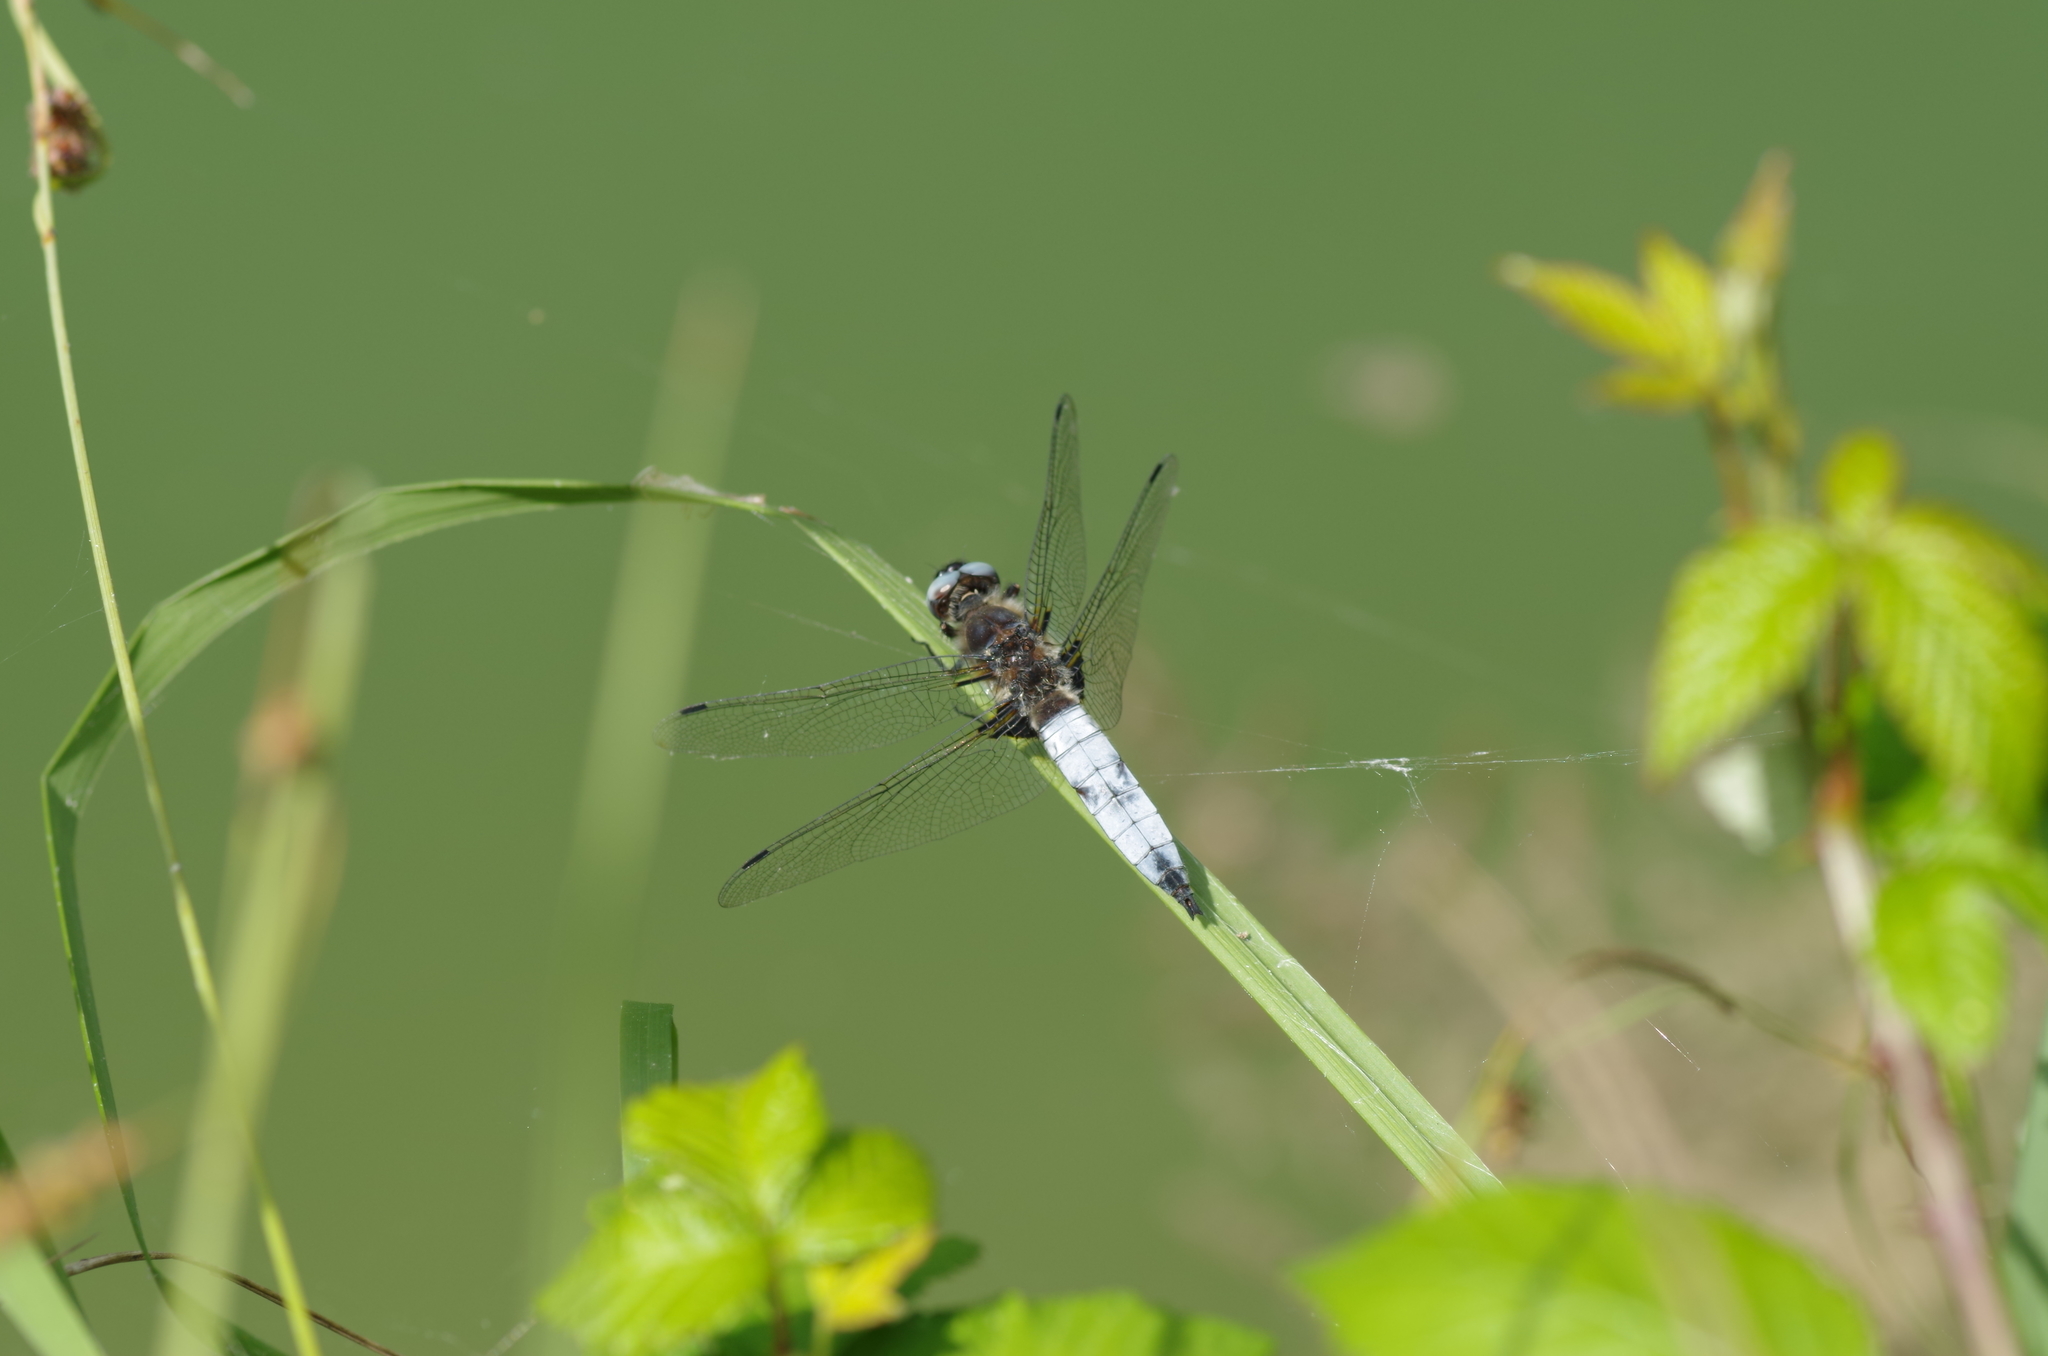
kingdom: Animalia
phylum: Arthropoda
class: Insecta
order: Odonata
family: Libellulidae
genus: Libellula
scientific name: Libellula fulva
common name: Blue chaser
